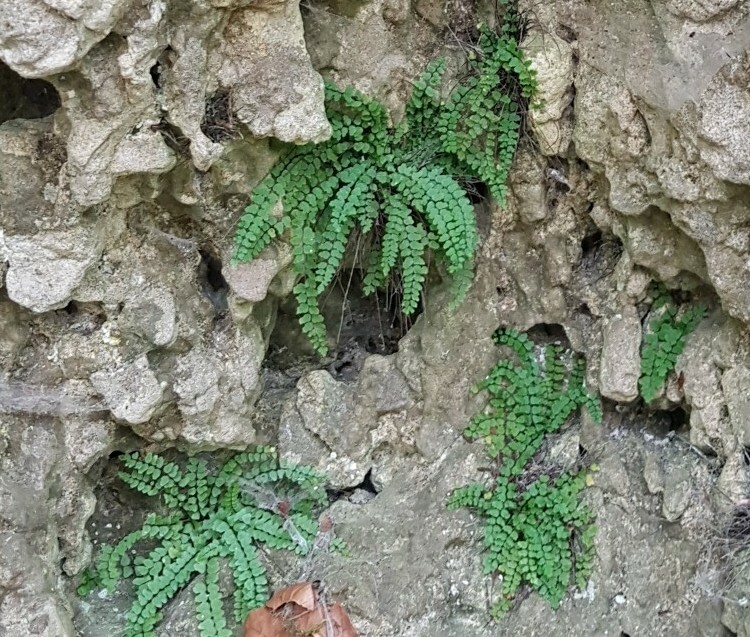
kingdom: Plantae
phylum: Tracheophyta
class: Polypodiopsida
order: Polypodiales
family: Aspleniaceae
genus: Asplenium
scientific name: Asplenium trichomanes
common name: Maidenhair spleenwort
